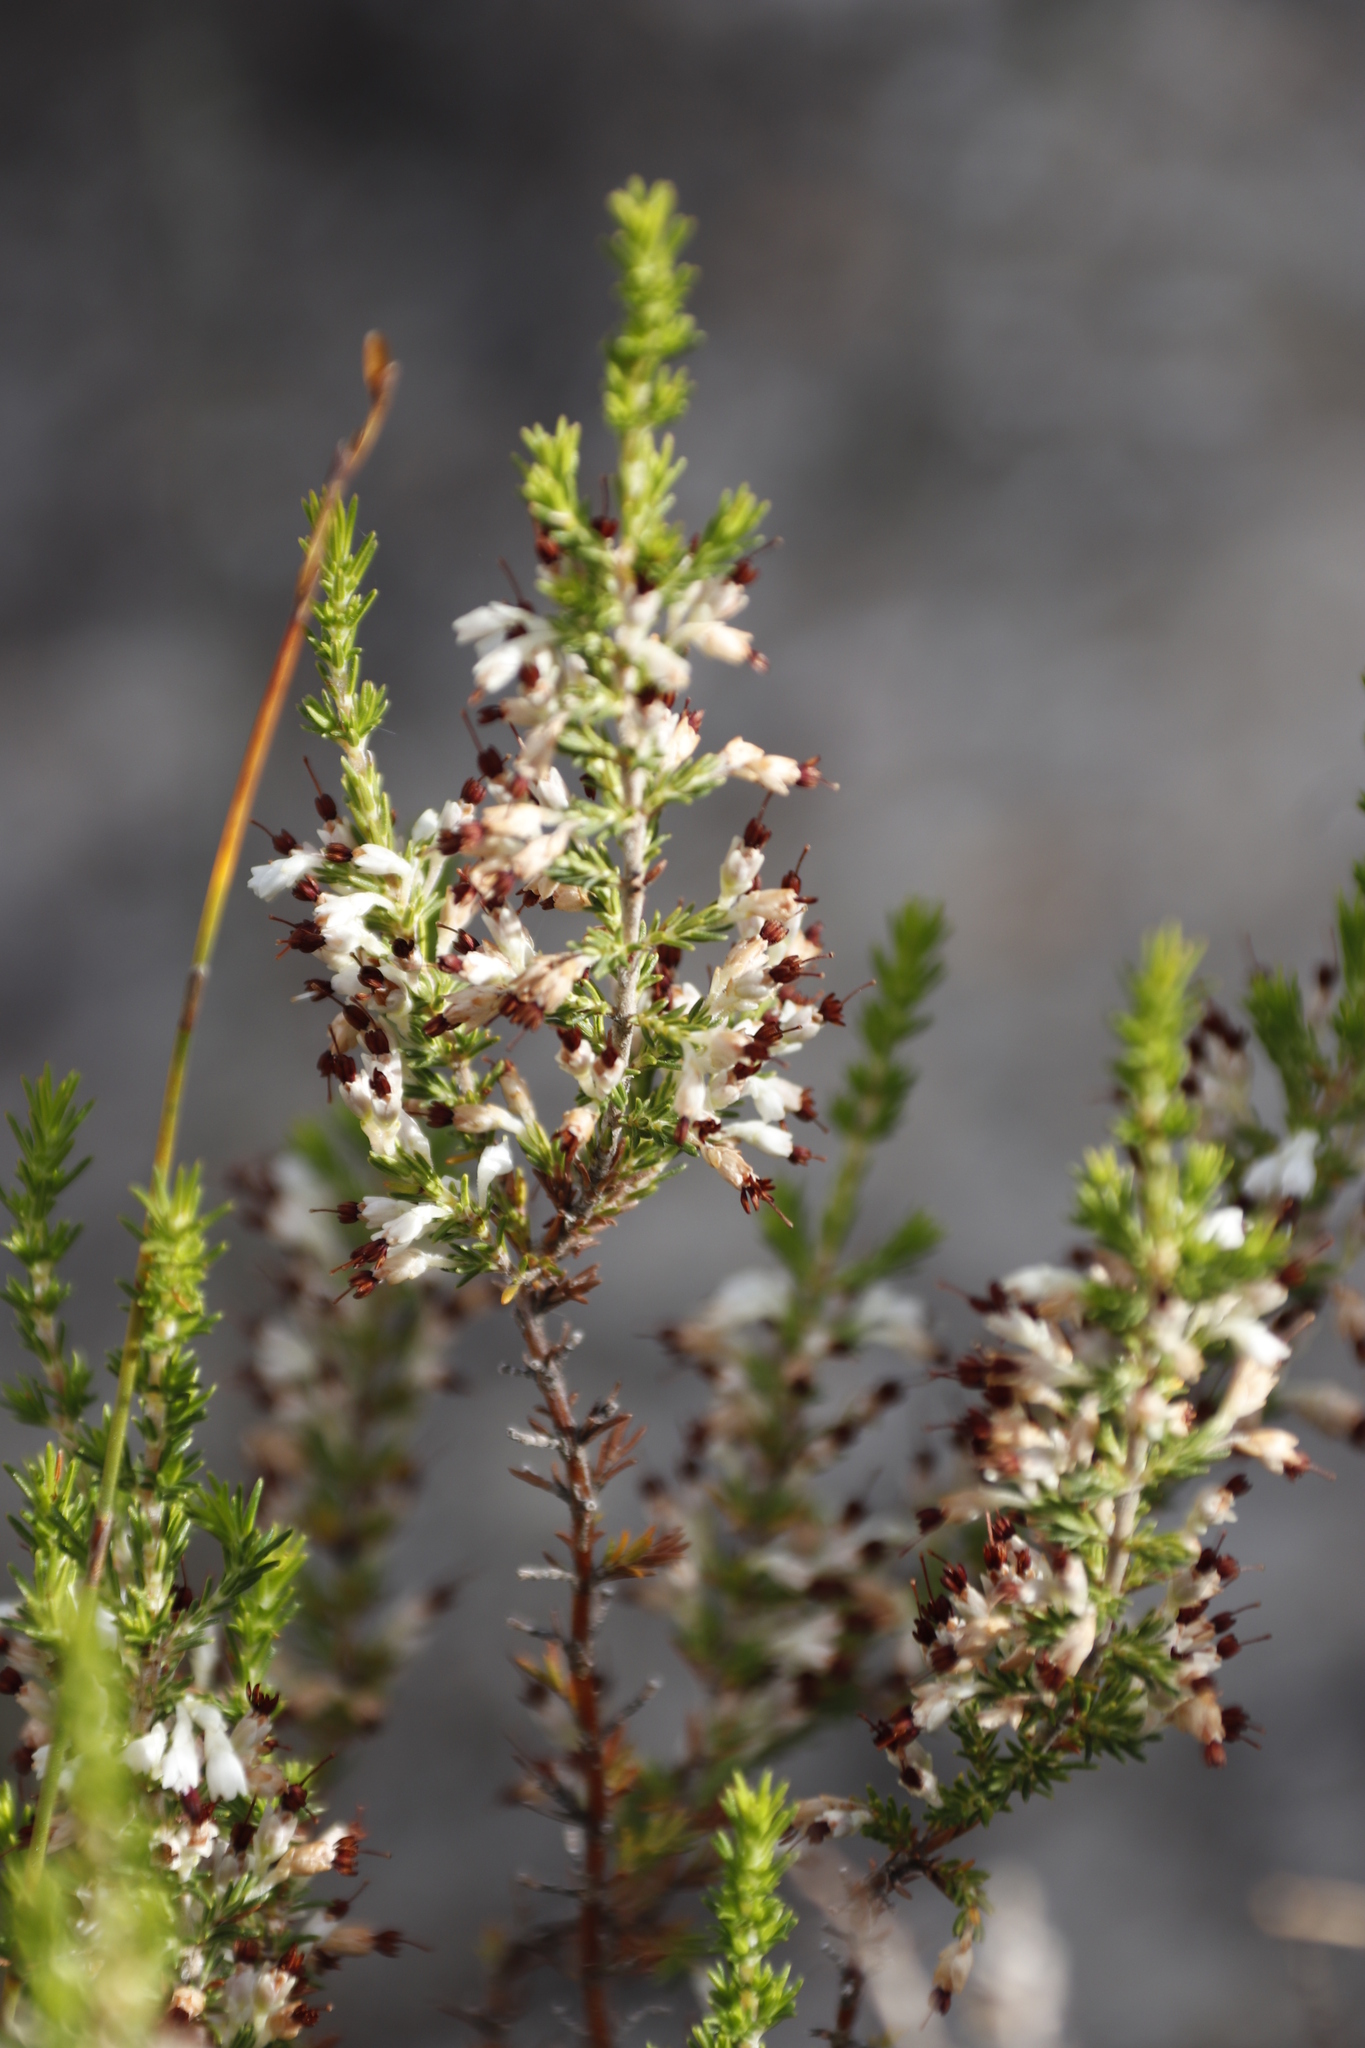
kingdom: Plantae
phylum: Tracheophyta
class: Magnoliopsida
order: Ericales
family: Ericaceae
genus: Erica
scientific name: Erica imbricata
